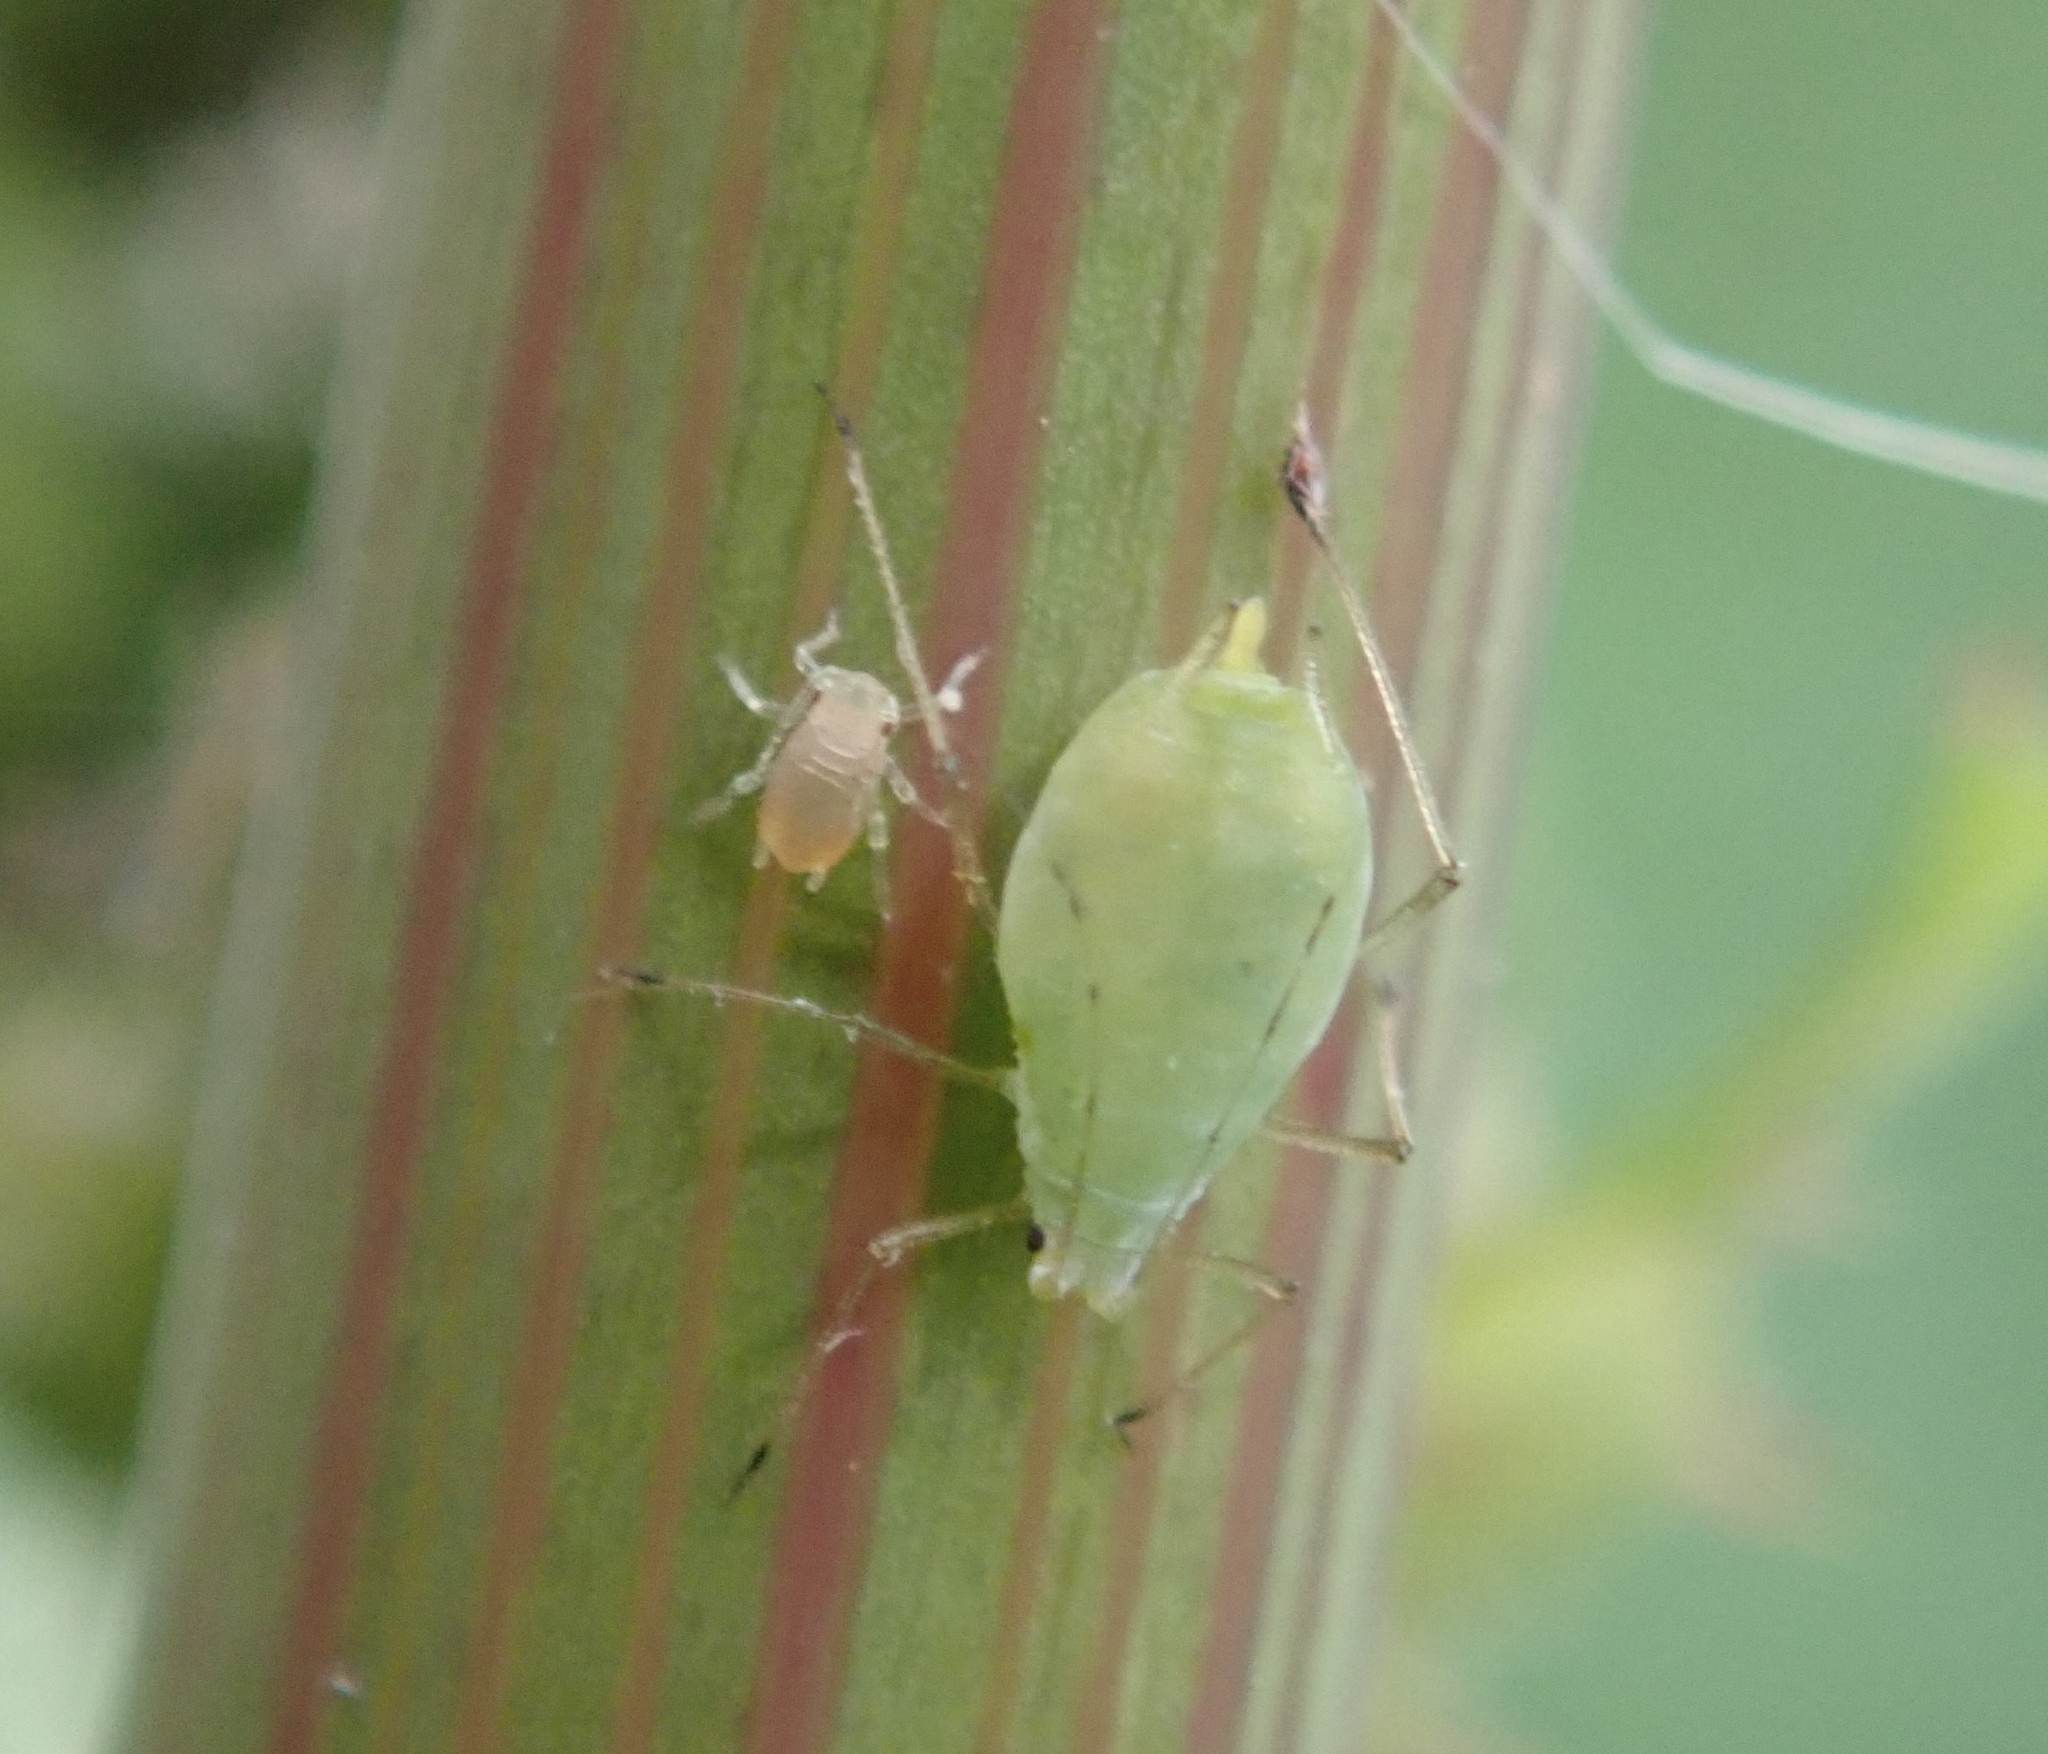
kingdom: Animalia
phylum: Arthropoda
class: Insecta
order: Hemiptera
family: Aphididae
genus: Hyperomyzus
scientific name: Hyperomyzus lactucae
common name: Sow thistle aphid
